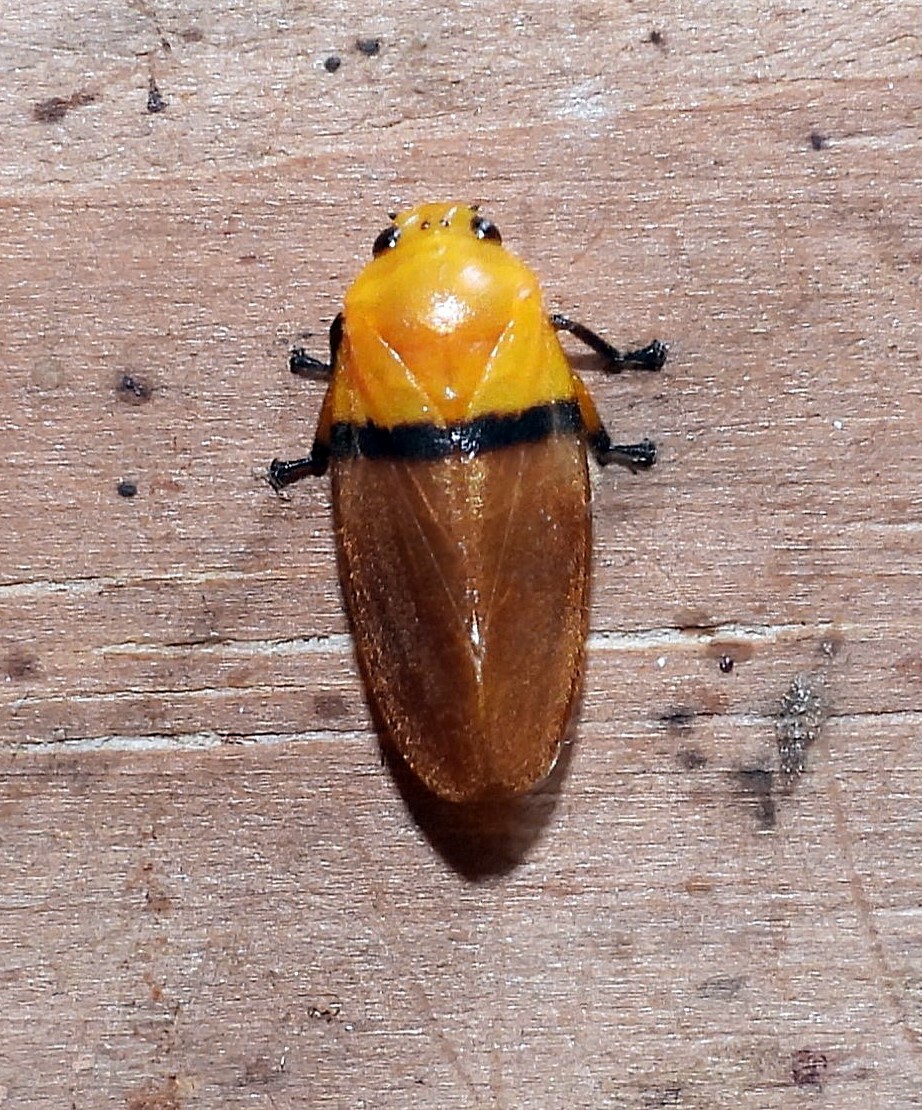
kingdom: Animalia
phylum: Arthropoda
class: Insecta
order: Hemiptera
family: Cercopidae
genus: Monecphora
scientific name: Monecphora cingulata
